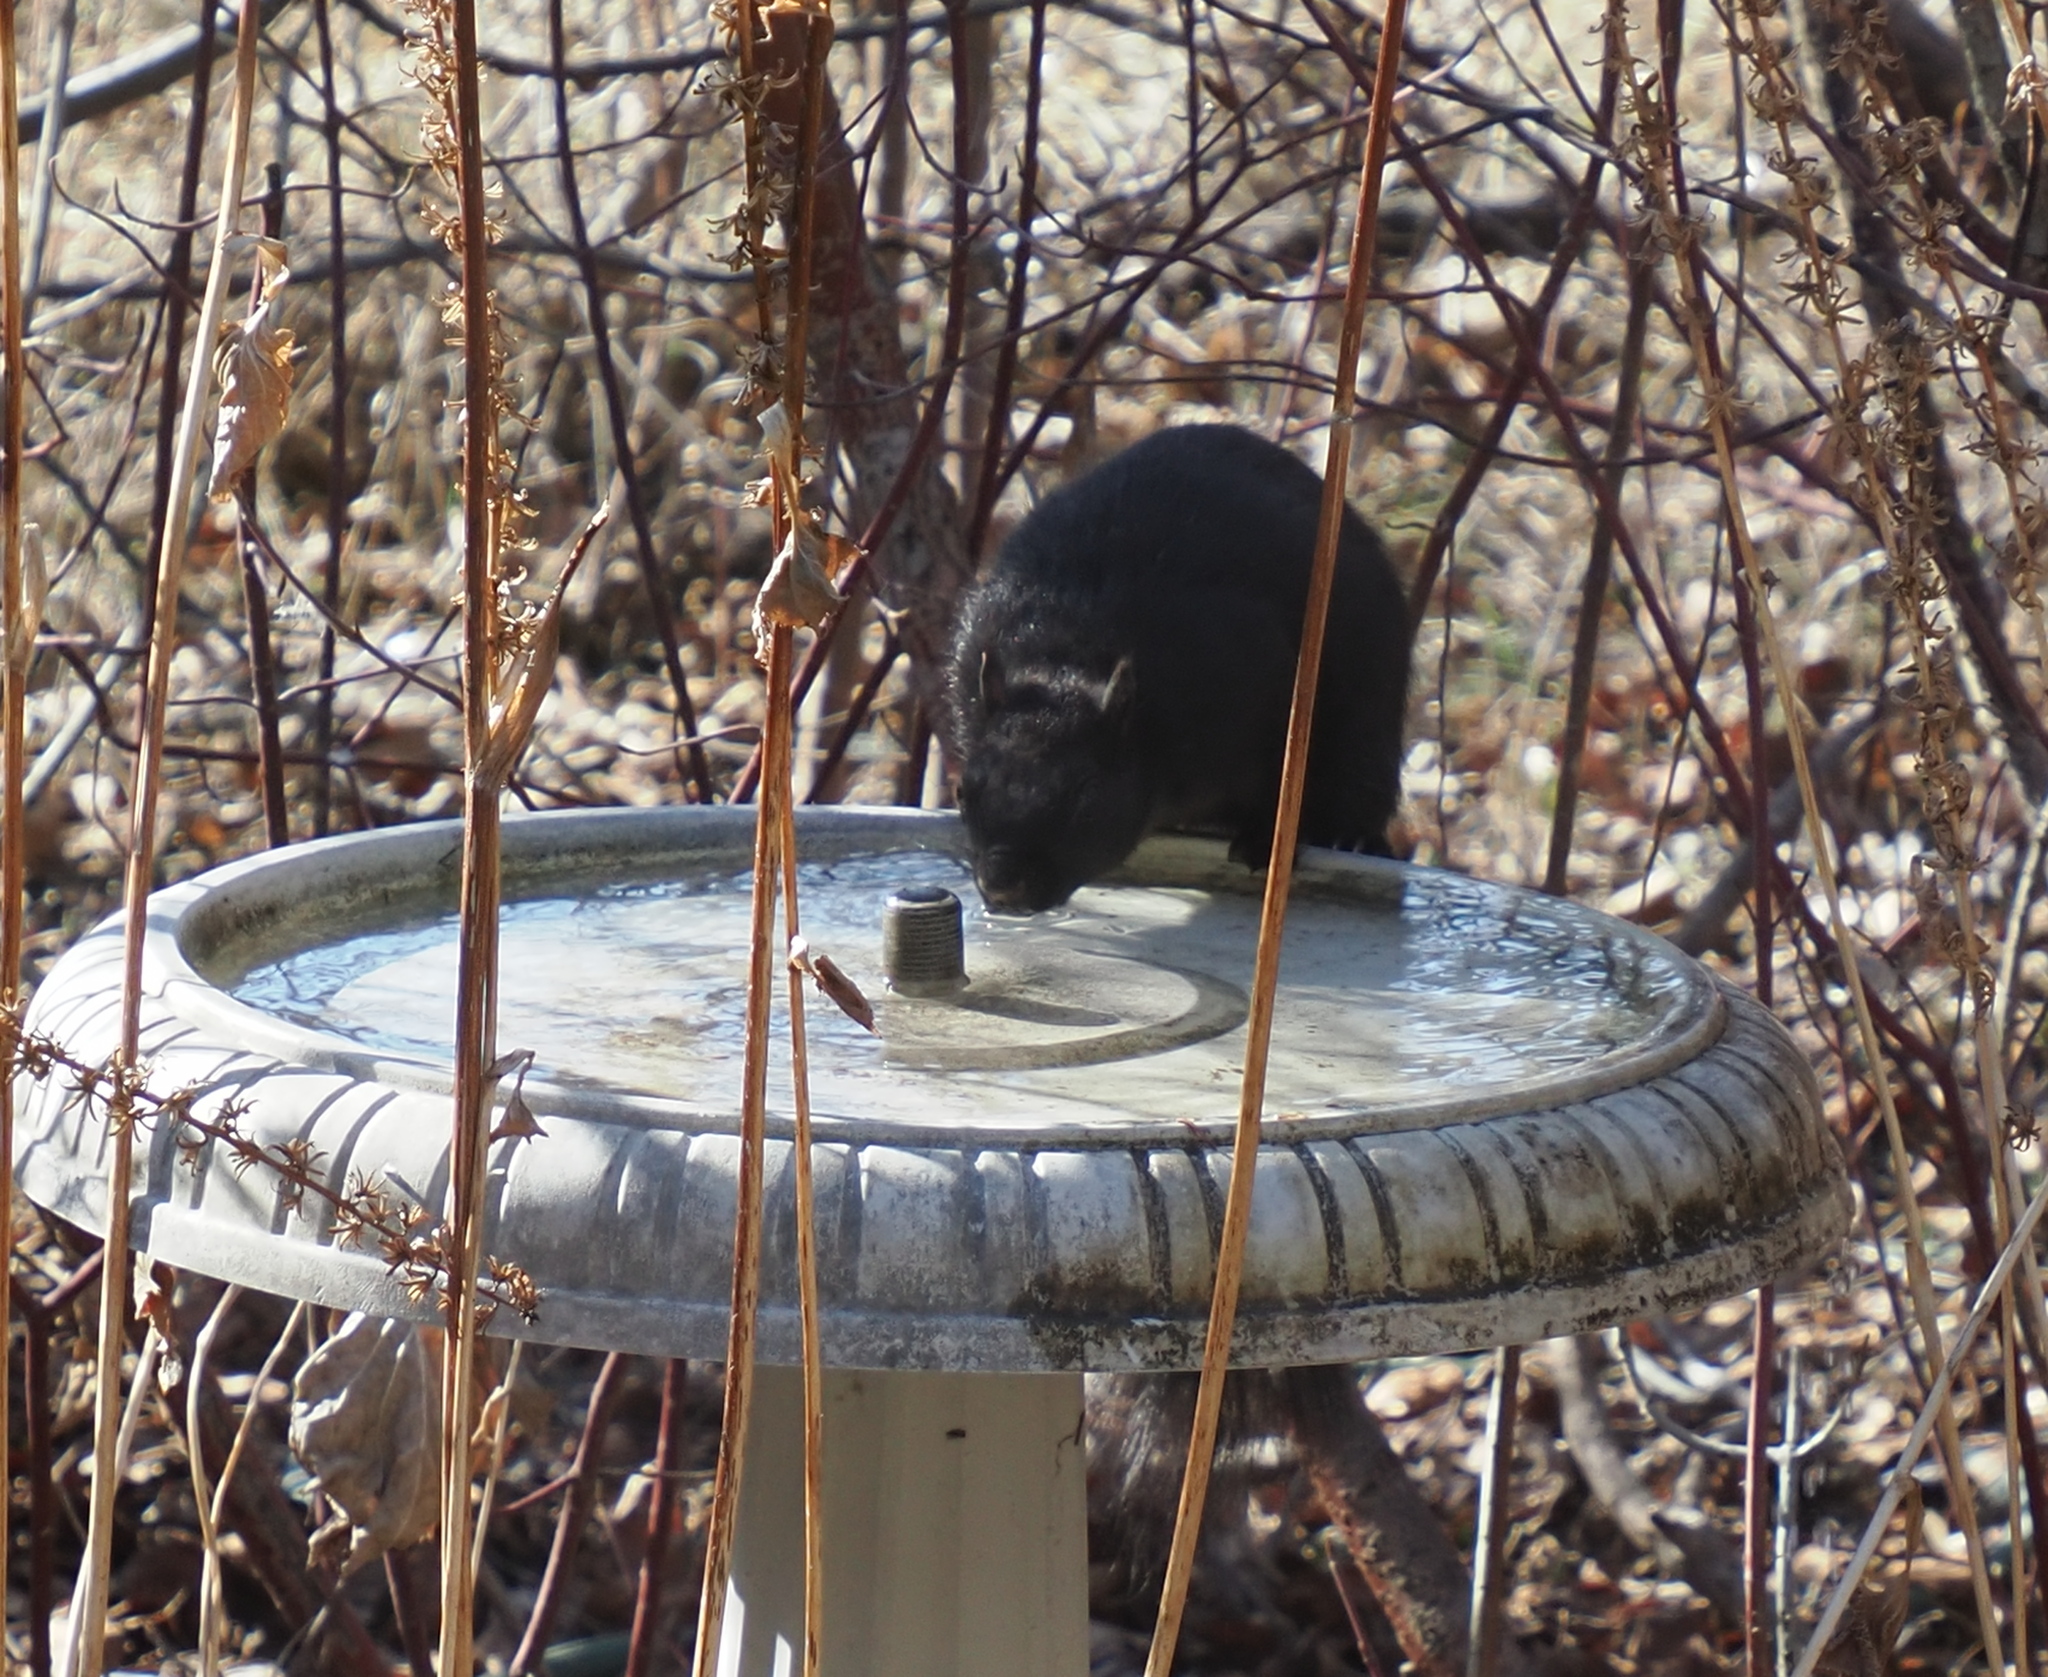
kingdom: Animalia
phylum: Chordata
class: Mammalia
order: Rodentia
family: Sciuridae
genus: Sciurus
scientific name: Sciurus carolinensis
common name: Eastern gray squirrel
